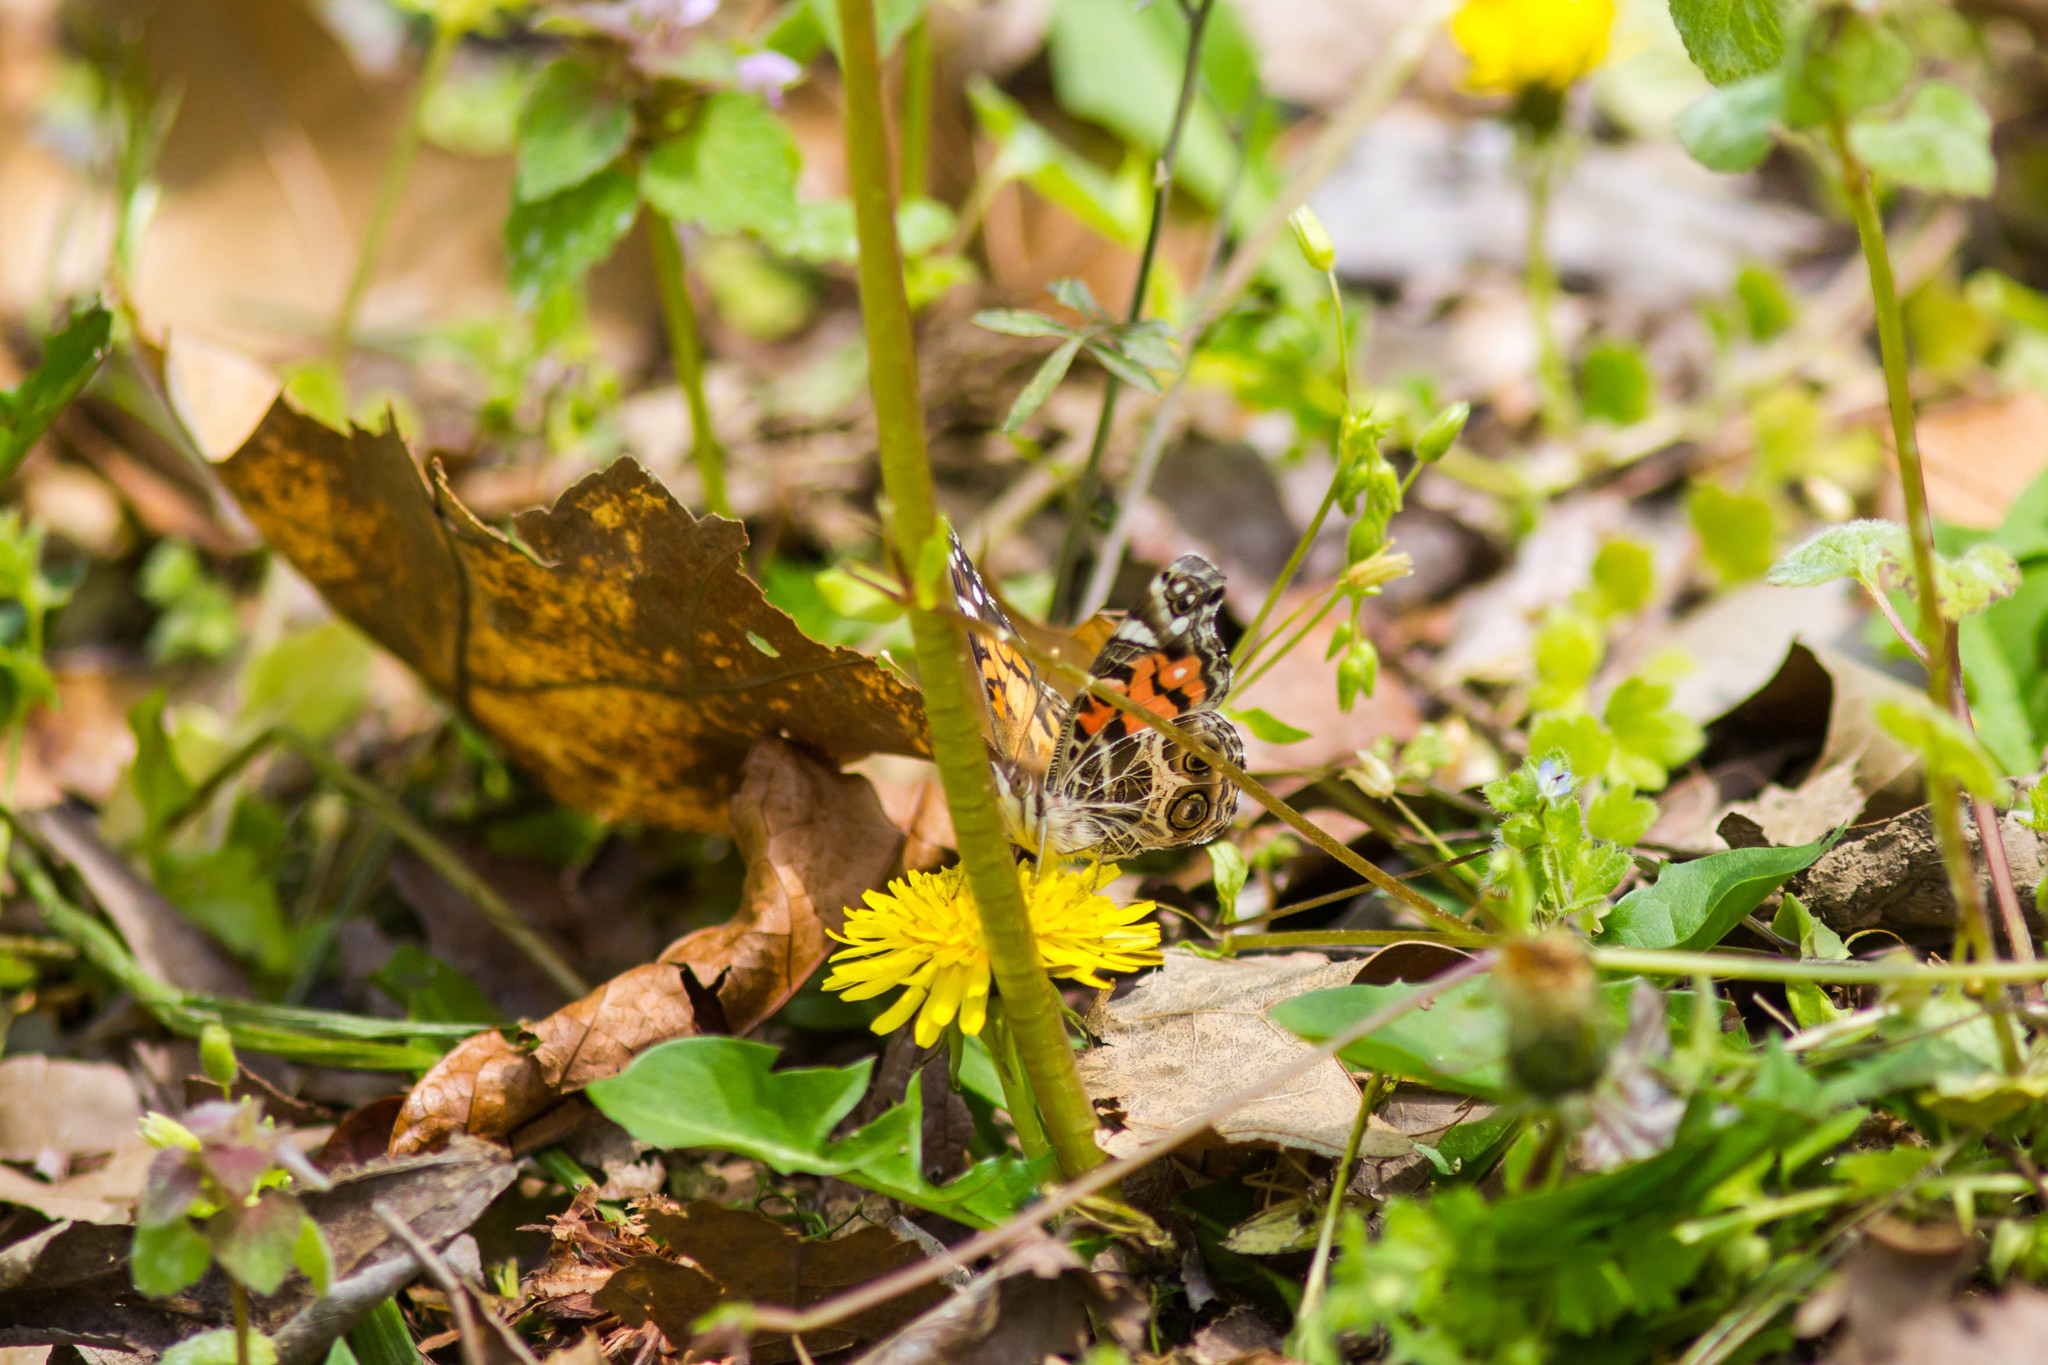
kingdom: Animalia
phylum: Arthropoda
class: Insecta
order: Lepidoptera
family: Nymphalidae
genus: Vanessa
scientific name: Vanessa virginiensis
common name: American lady
